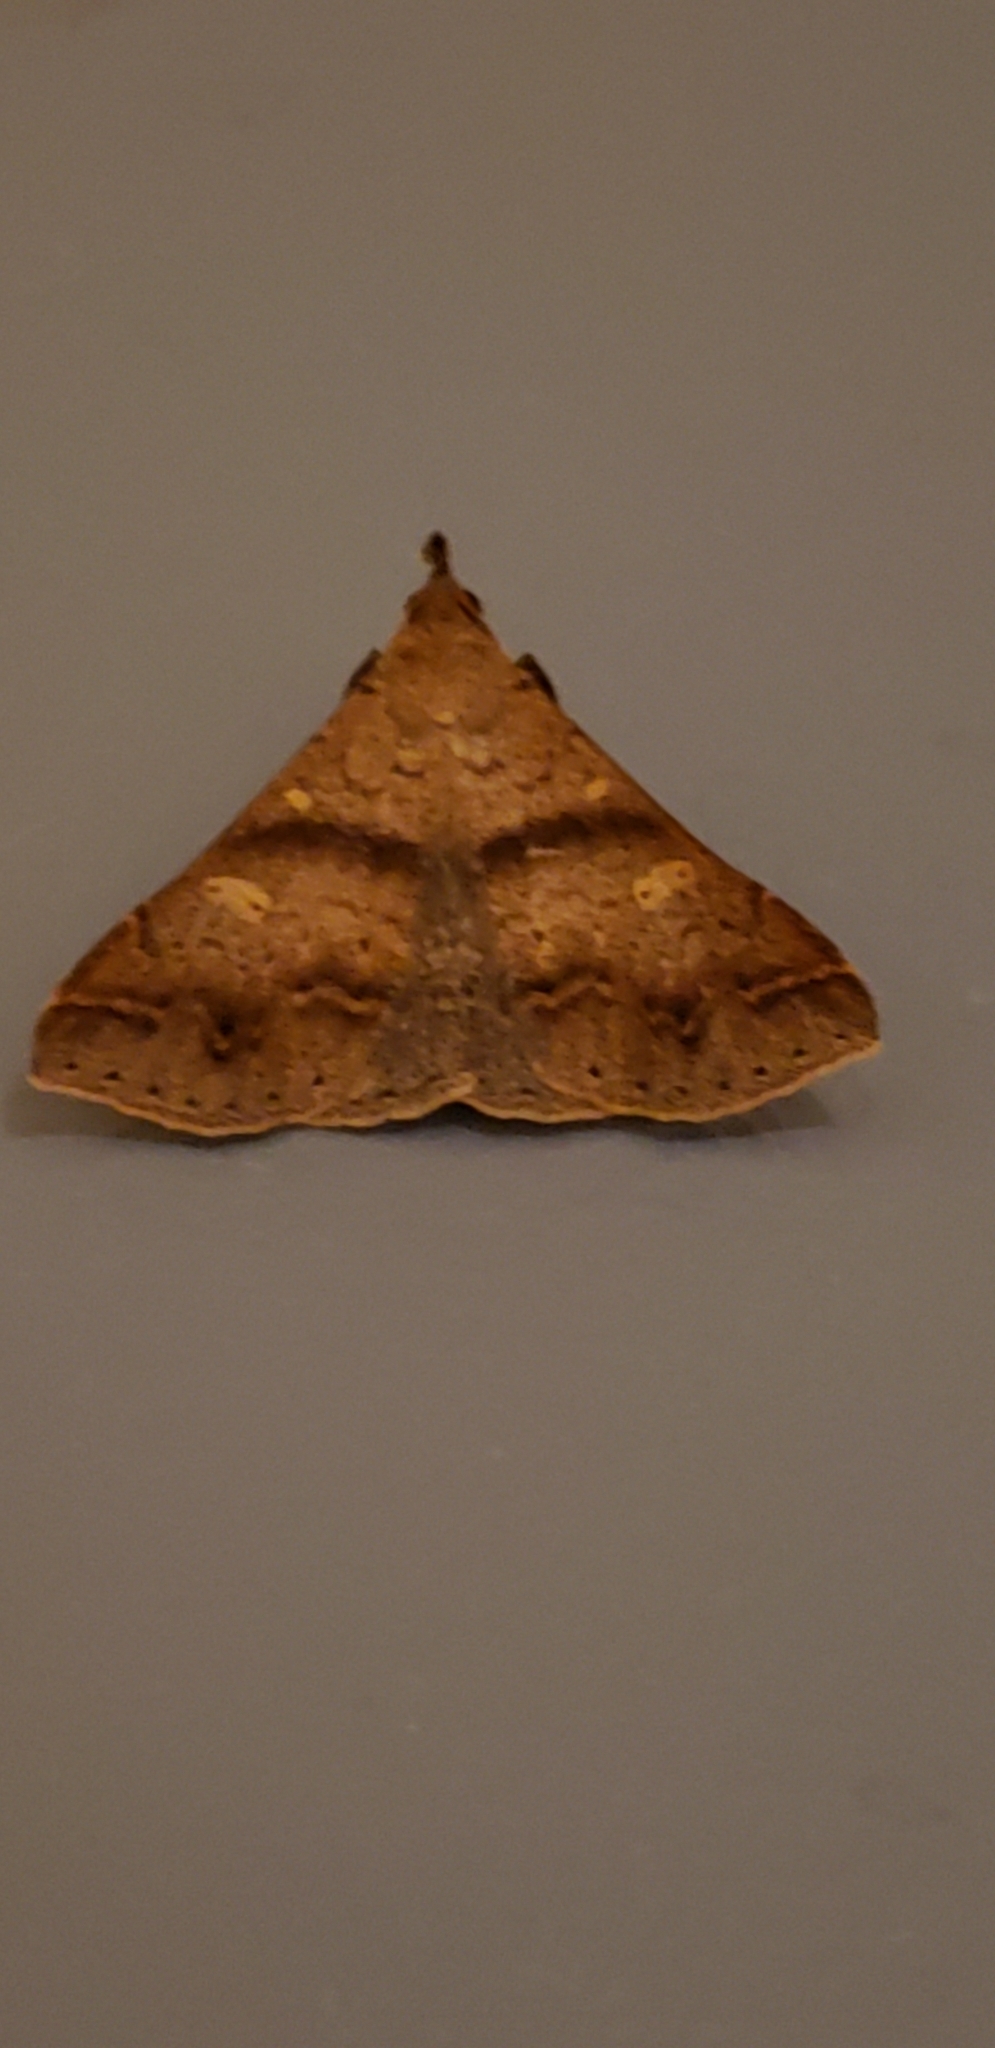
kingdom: Animalia
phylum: Arthropoda
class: Insecta
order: Lepidoptera
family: Erebidae
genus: Renia
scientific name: Renia discoloralis
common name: Discolored renia moth
